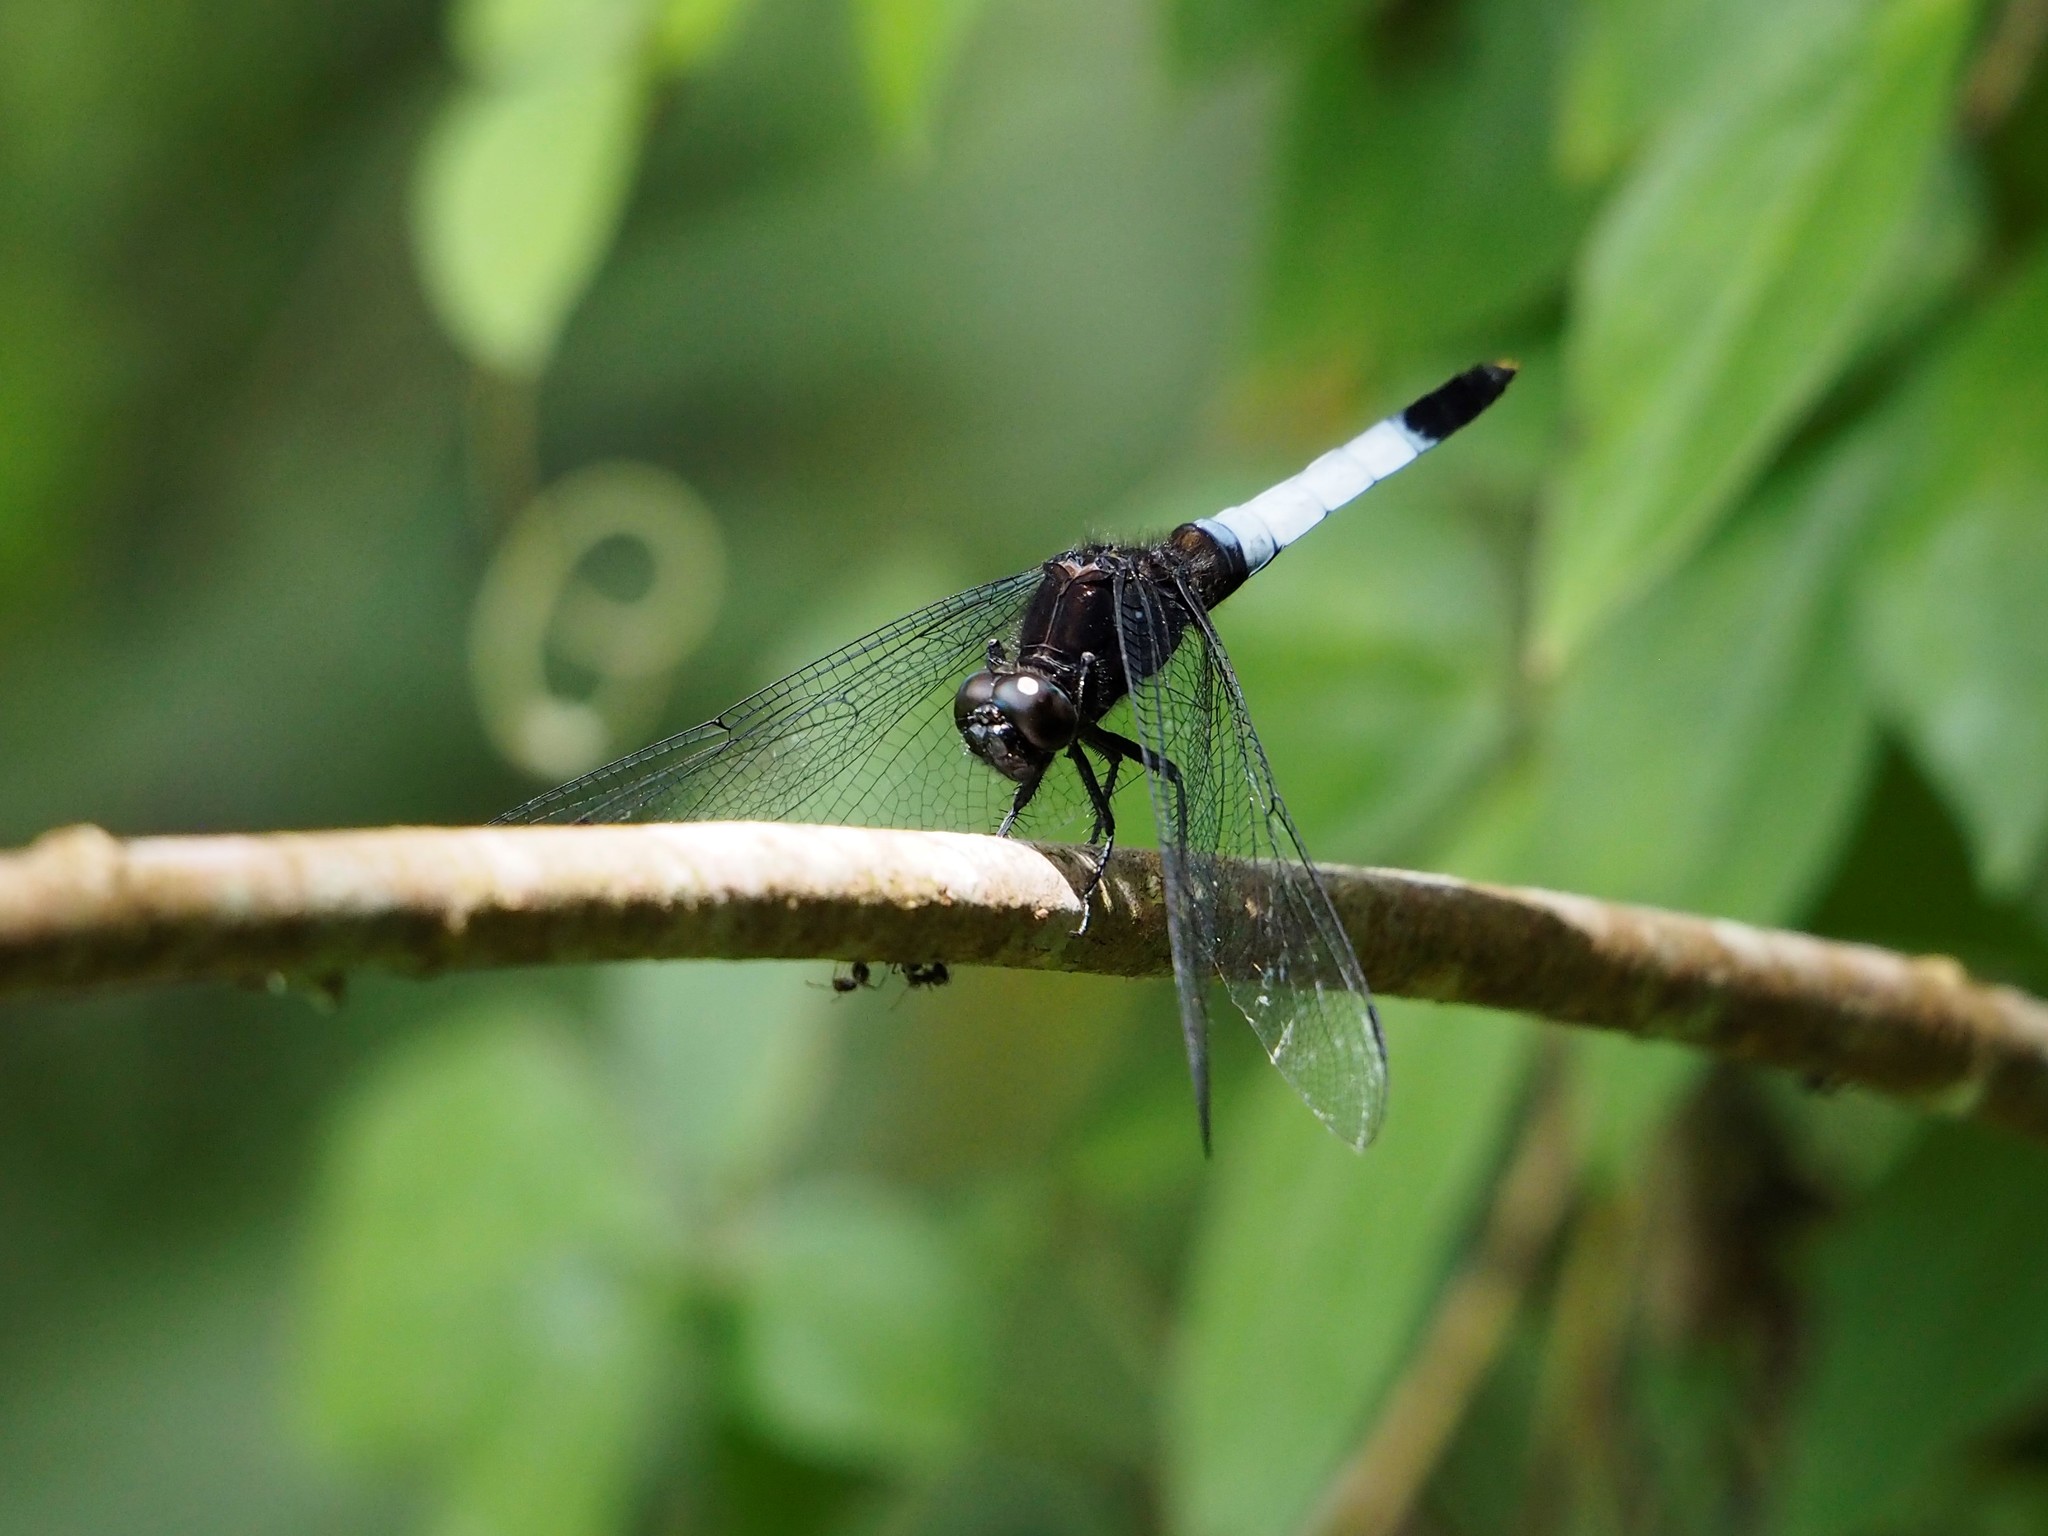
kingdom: Animalia
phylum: Arthropoda
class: Insecta
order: Odonata
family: Libellulidae
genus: Orthetrum
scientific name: Orthetrum triangulare
